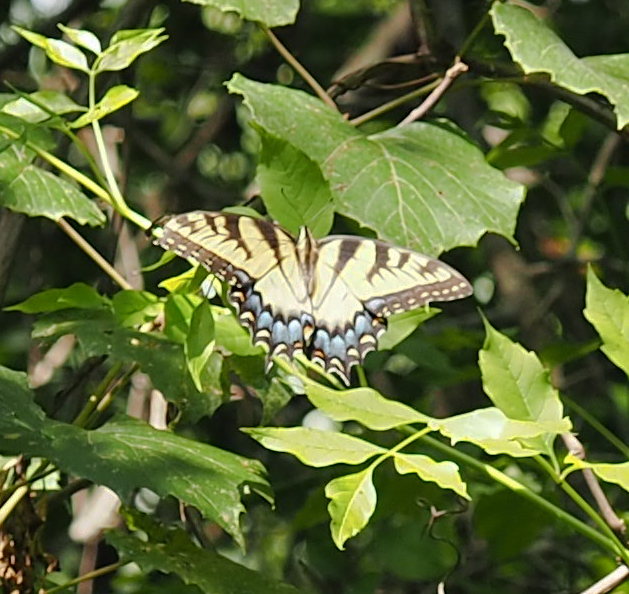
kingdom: Animalia
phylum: Arthropoda
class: Insecta
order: Lepidoptera
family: Papilionidae
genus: Papilio
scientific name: Papilio glaucus
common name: Tiger swallowtail
